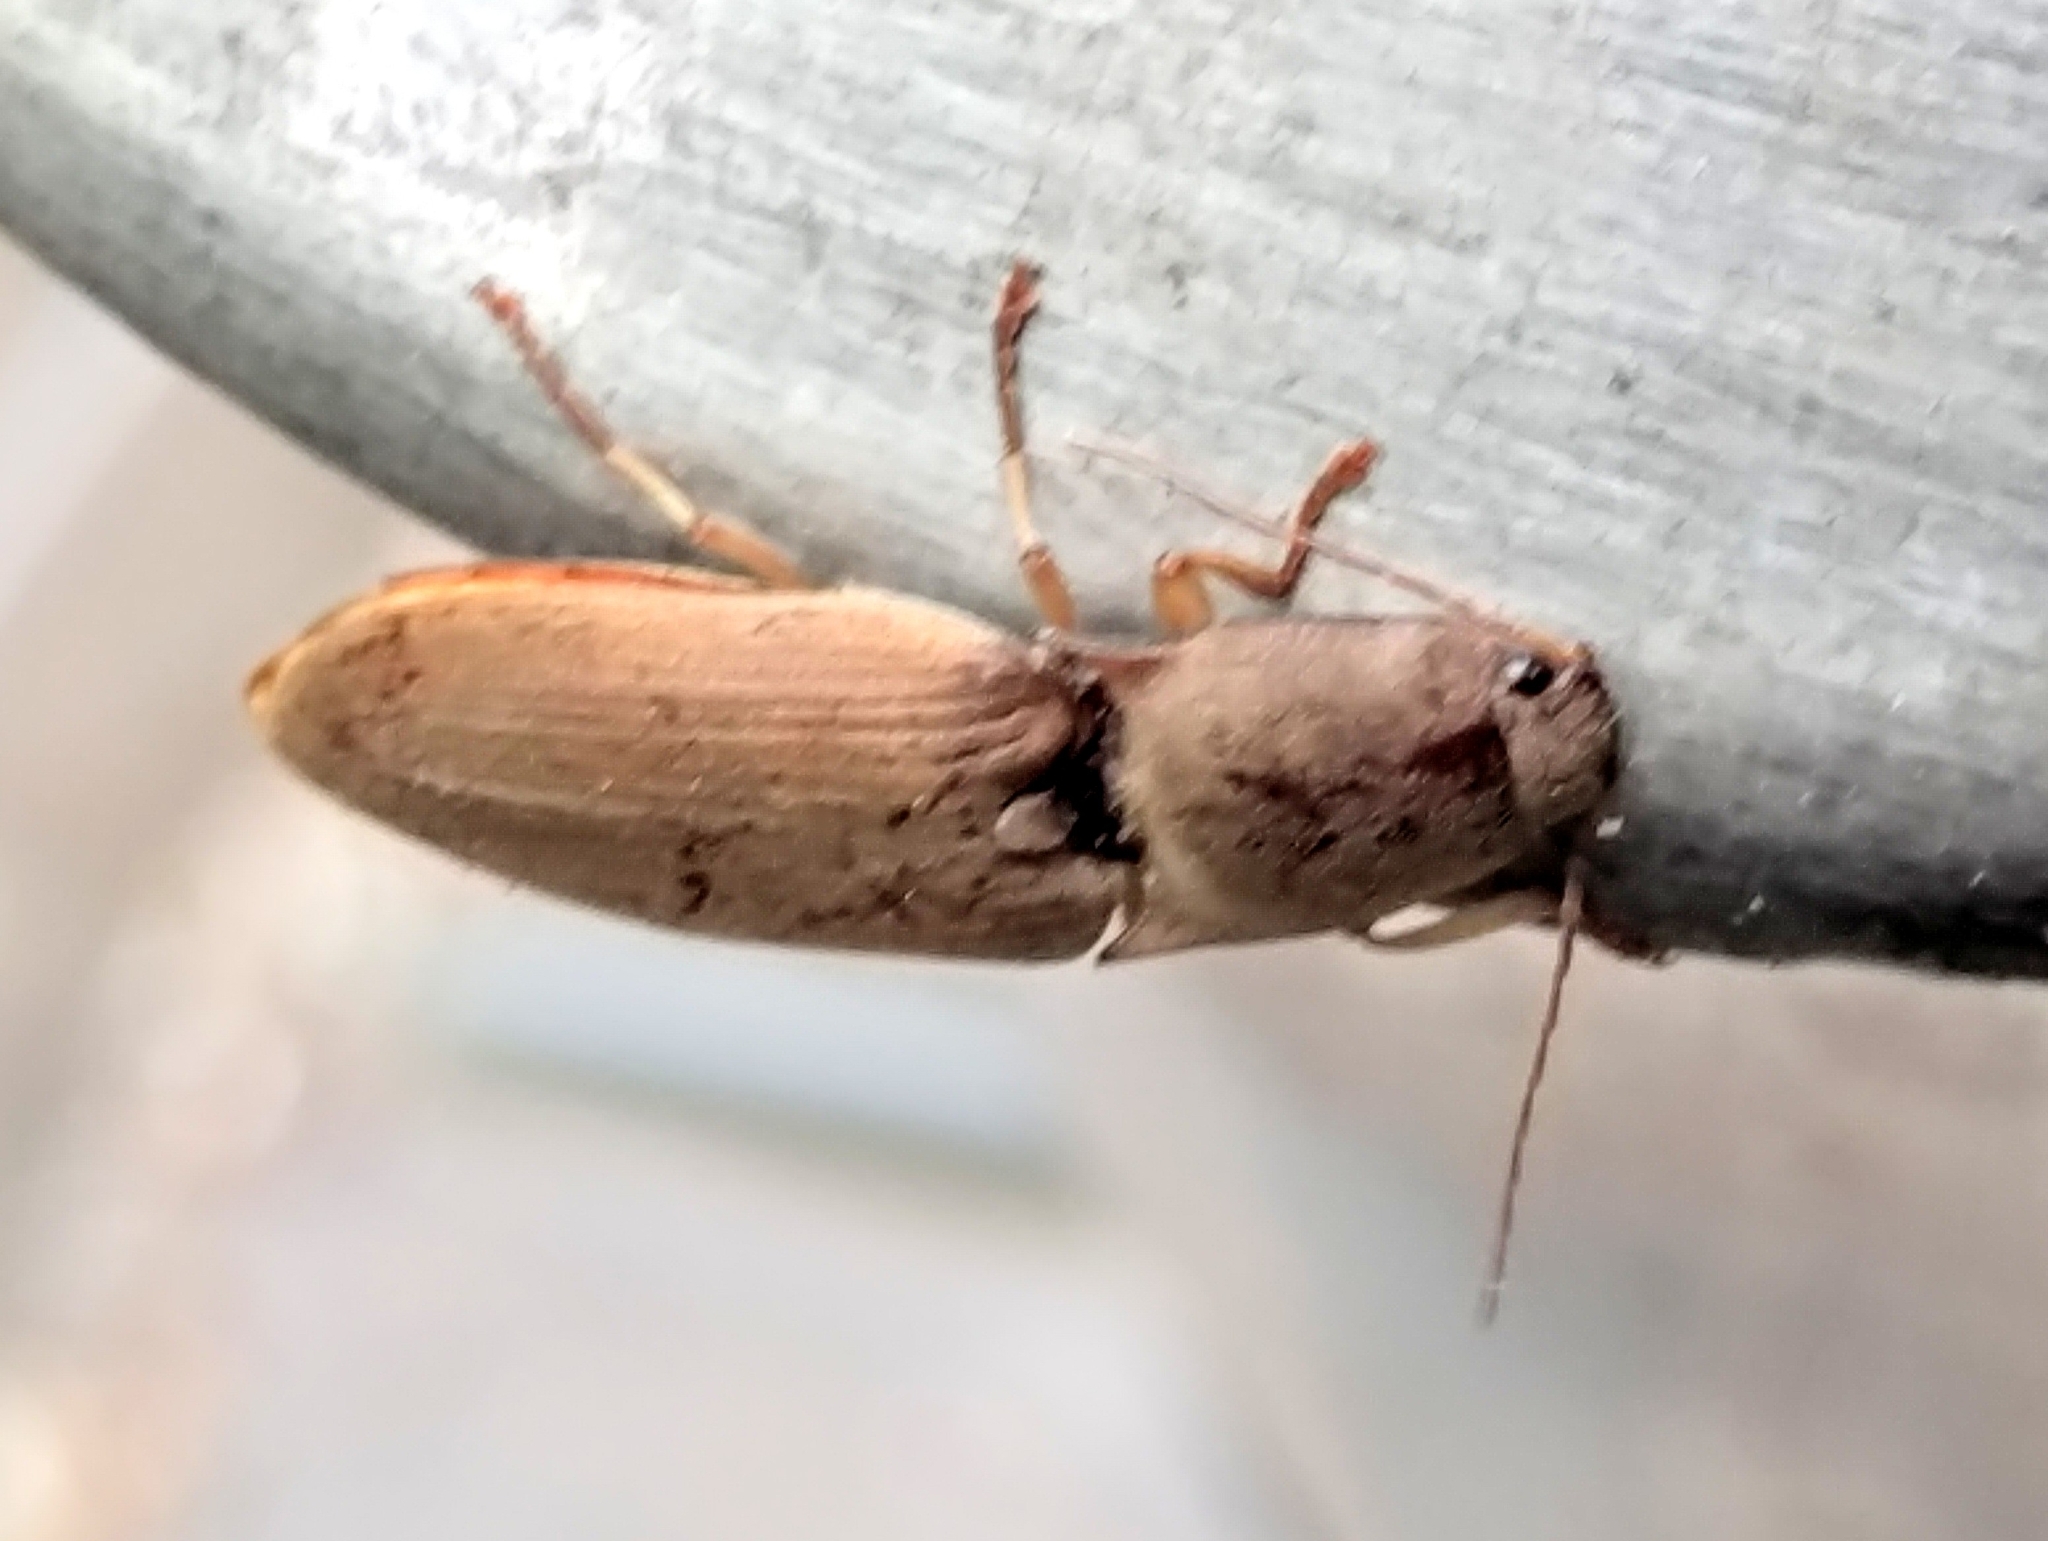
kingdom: Animalia
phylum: Arthropoda
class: Insecta
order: Coleoptera
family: Elateridae
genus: Monocrepidius
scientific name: Monocrepidius lividus
